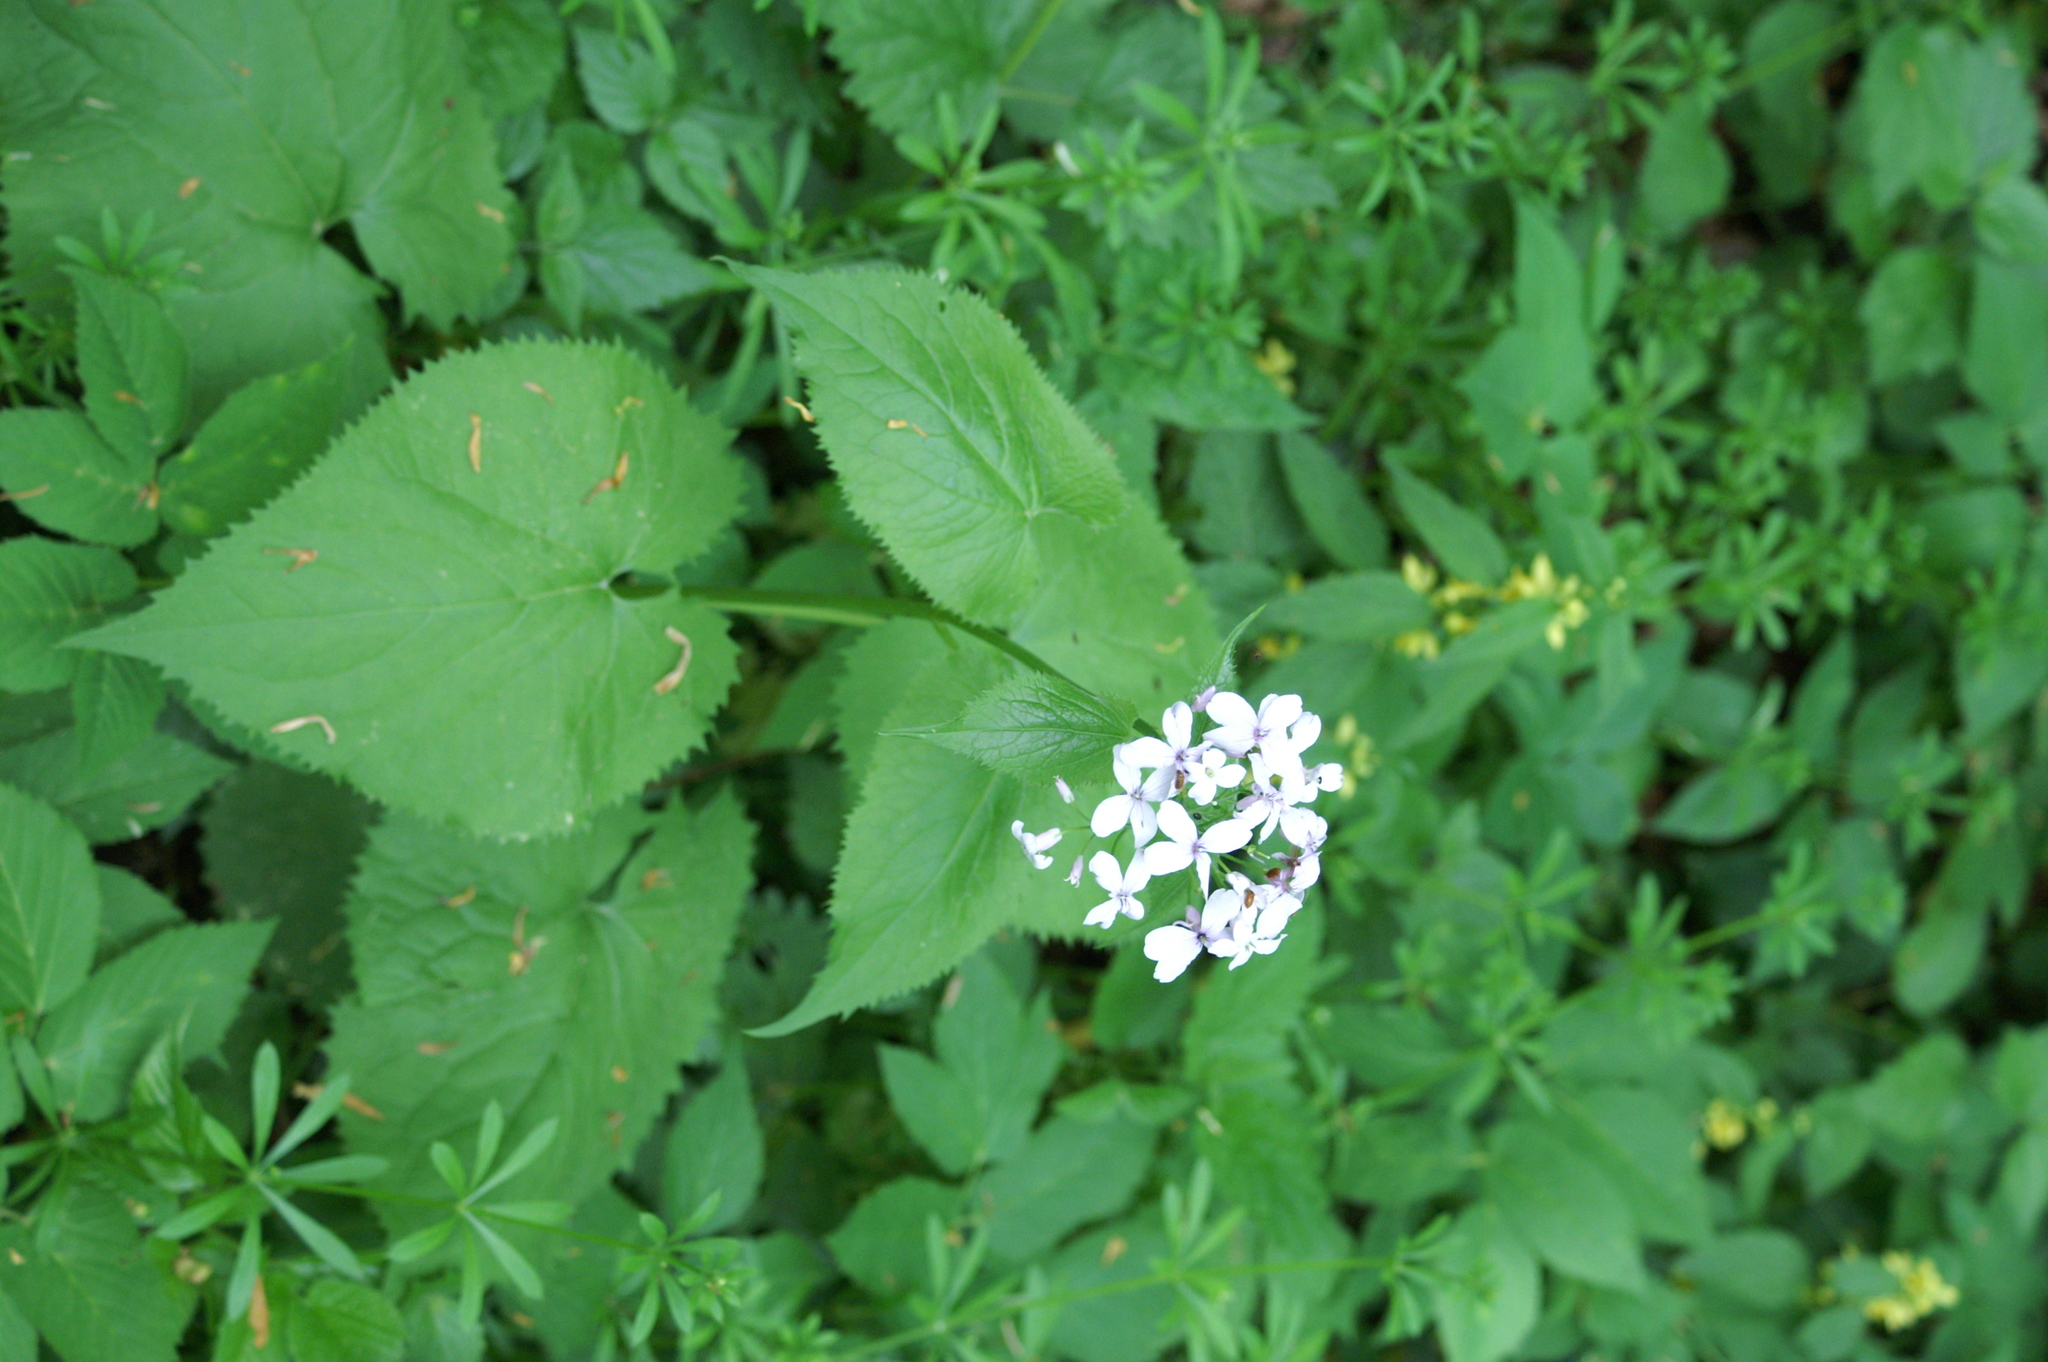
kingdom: Plantae
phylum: Tracheophyta
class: Magnoliopsida
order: Brassicales
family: Brassicaceae
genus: Lunaria
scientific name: Lunaria rediviva
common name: Perennial honesty
